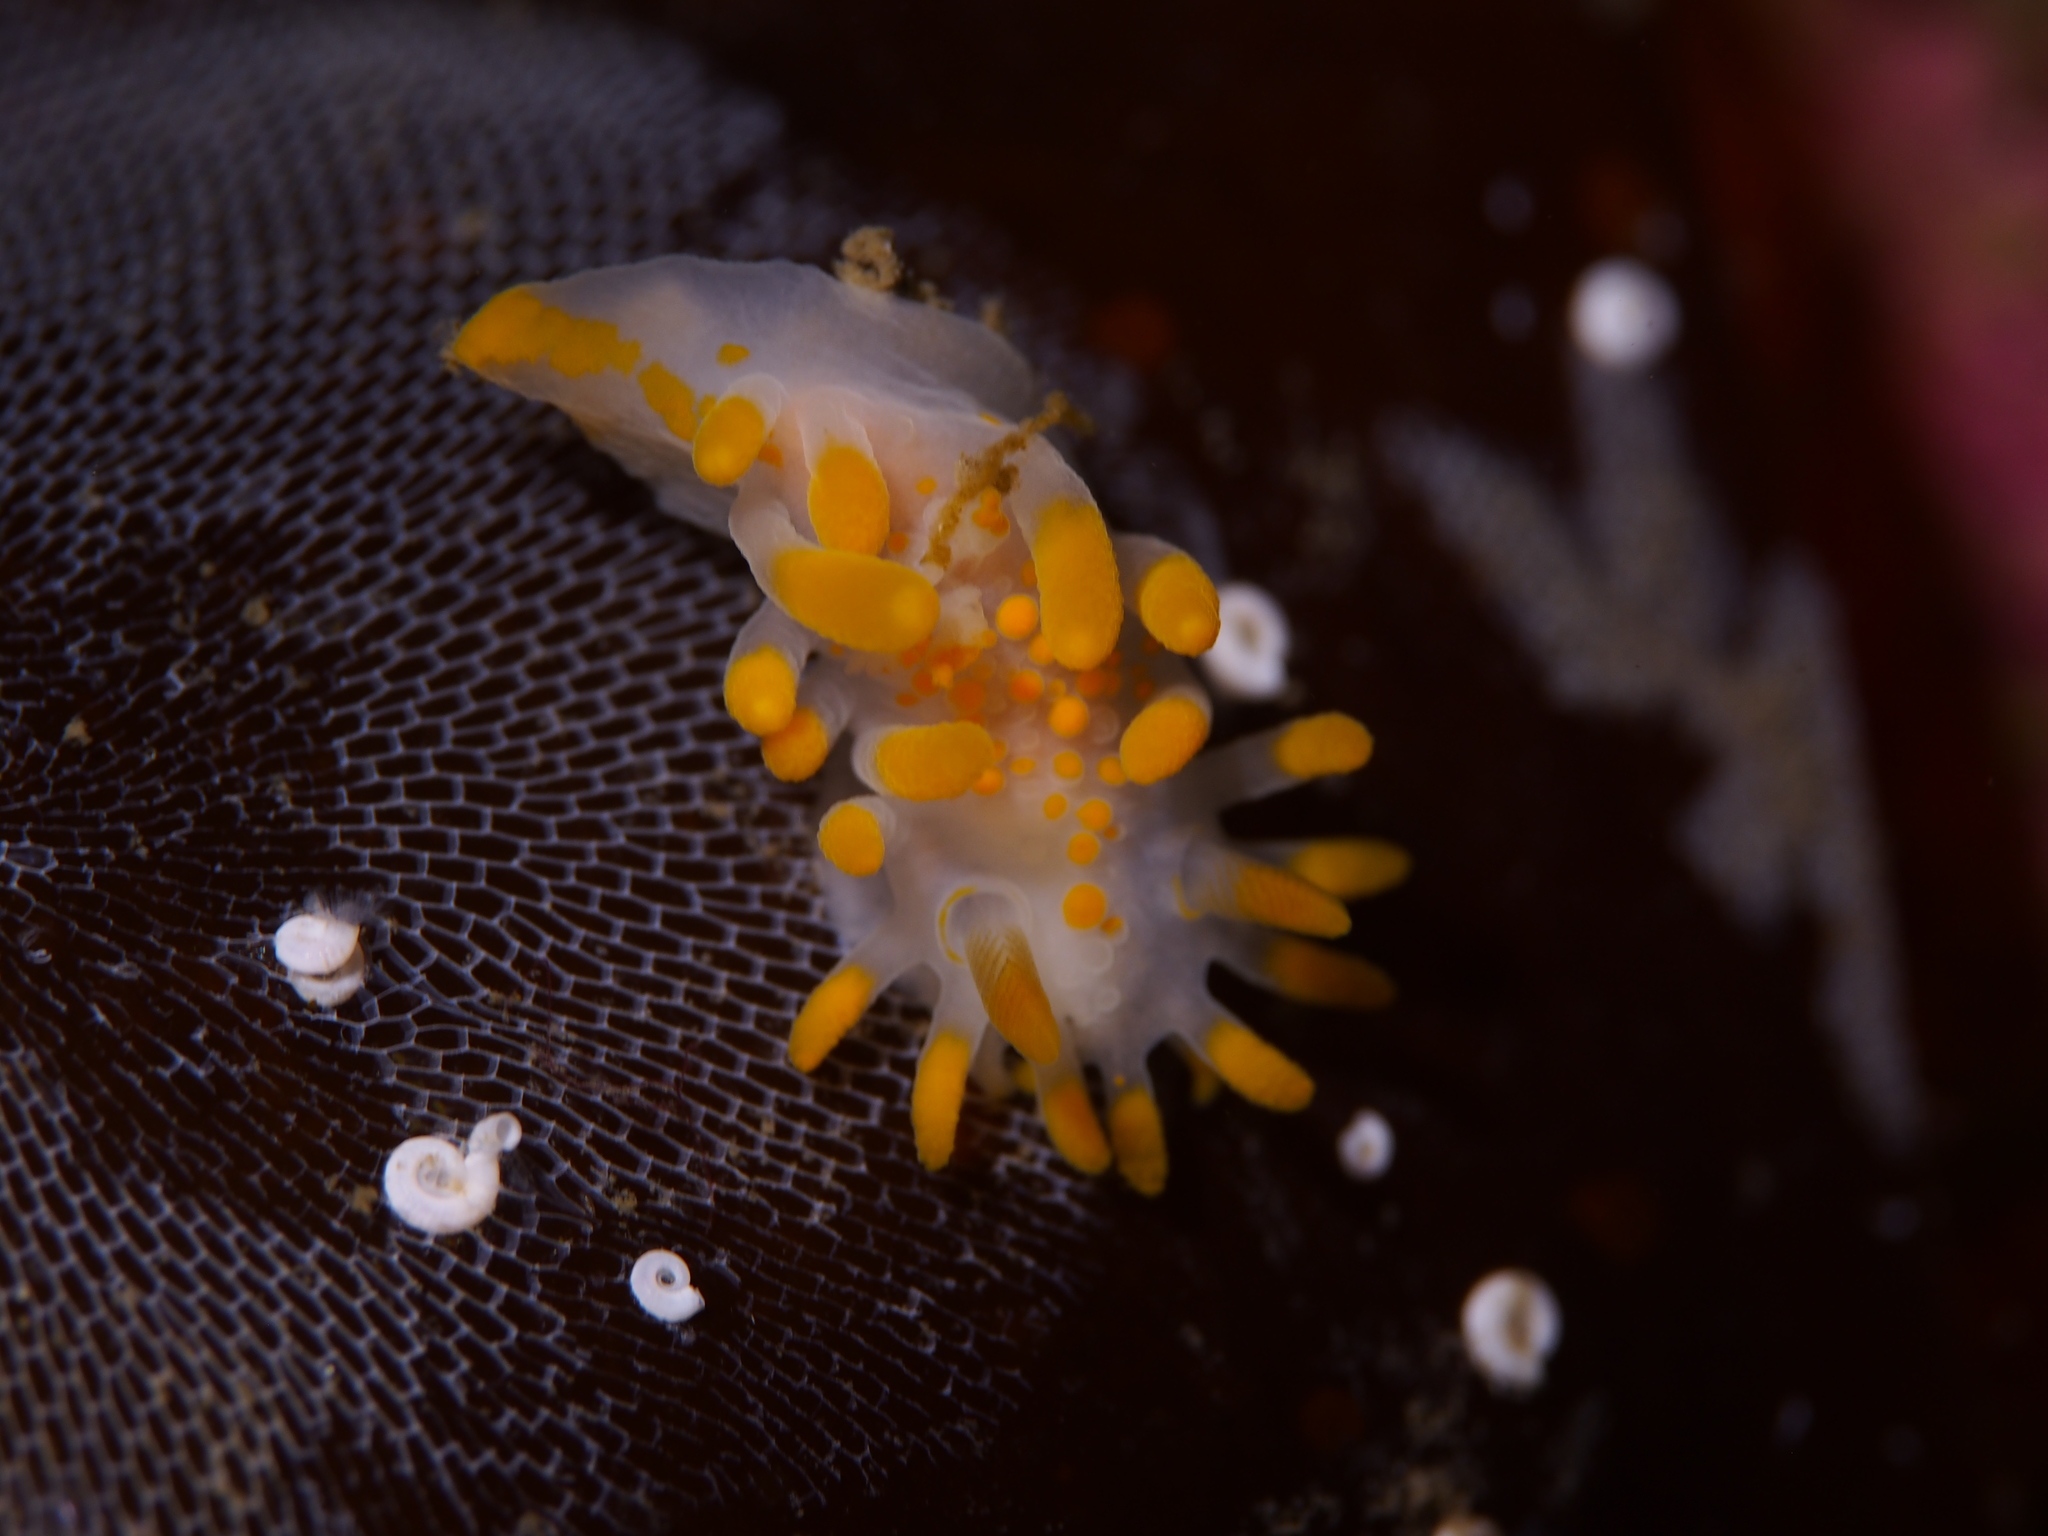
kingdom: Animalia
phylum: Mollusca
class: Gastropoda
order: Nudibranchia
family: Polyceridae
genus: Limacia
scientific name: Limacia clavigera
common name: Orange-clubbed sea slug
